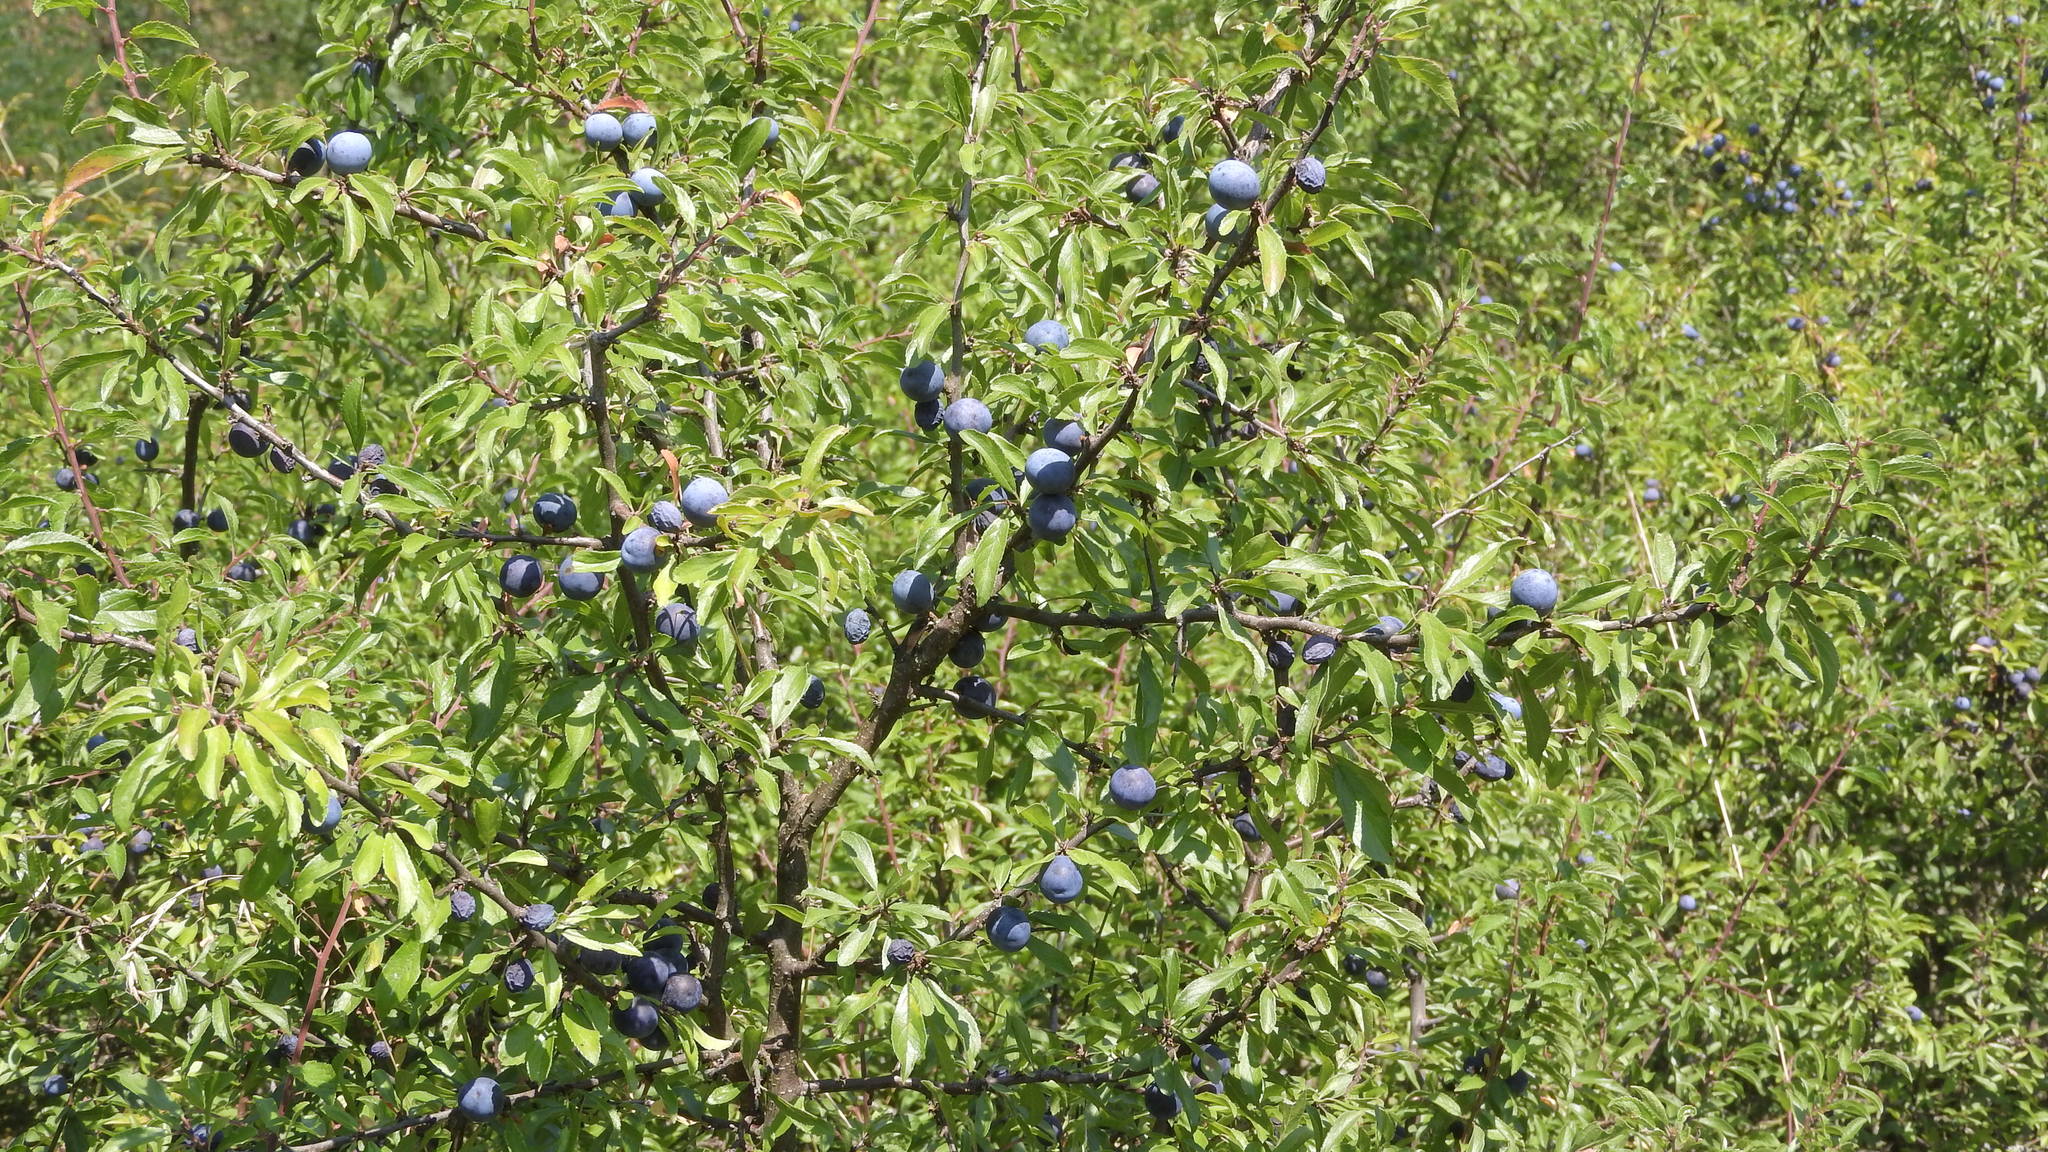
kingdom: Plantae
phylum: Tracheophyta
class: Magnoliopsida
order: Rosales
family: Rosaceae
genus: Prunus
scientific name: Prunus spinosa
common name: Blackthorn
